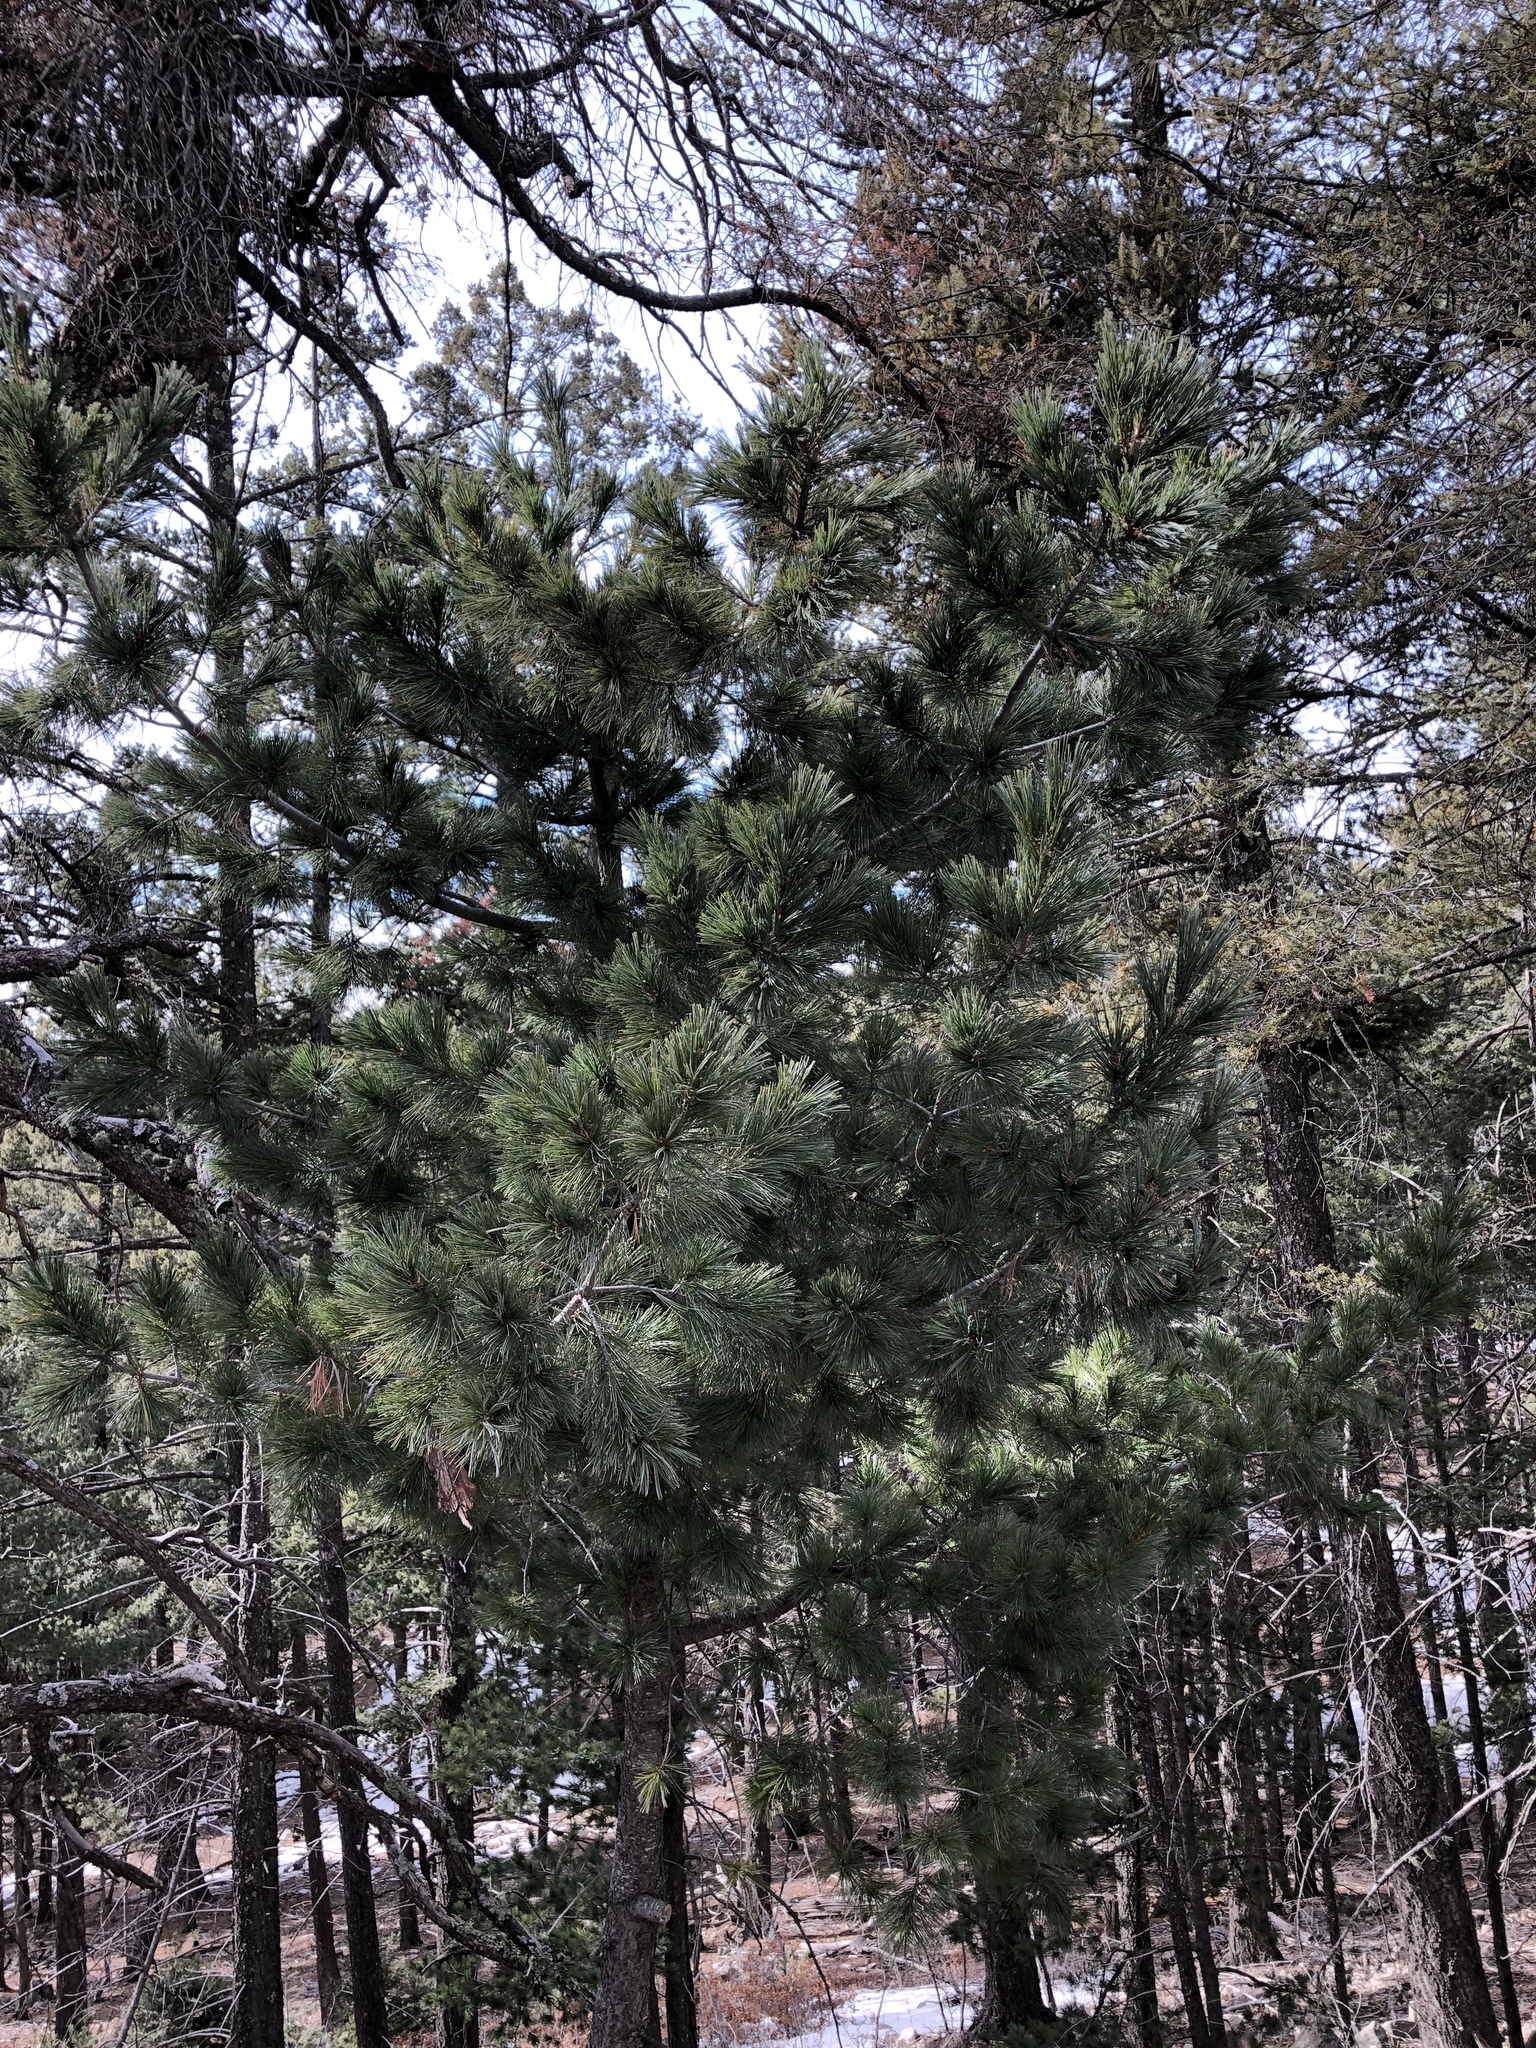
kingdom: Plantae
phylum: Tracheophyta
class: Pinopsida
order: Pinales
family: Pinaceae
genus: Pinus
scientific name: Pinus strobiformis
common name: Southwestern white pine
